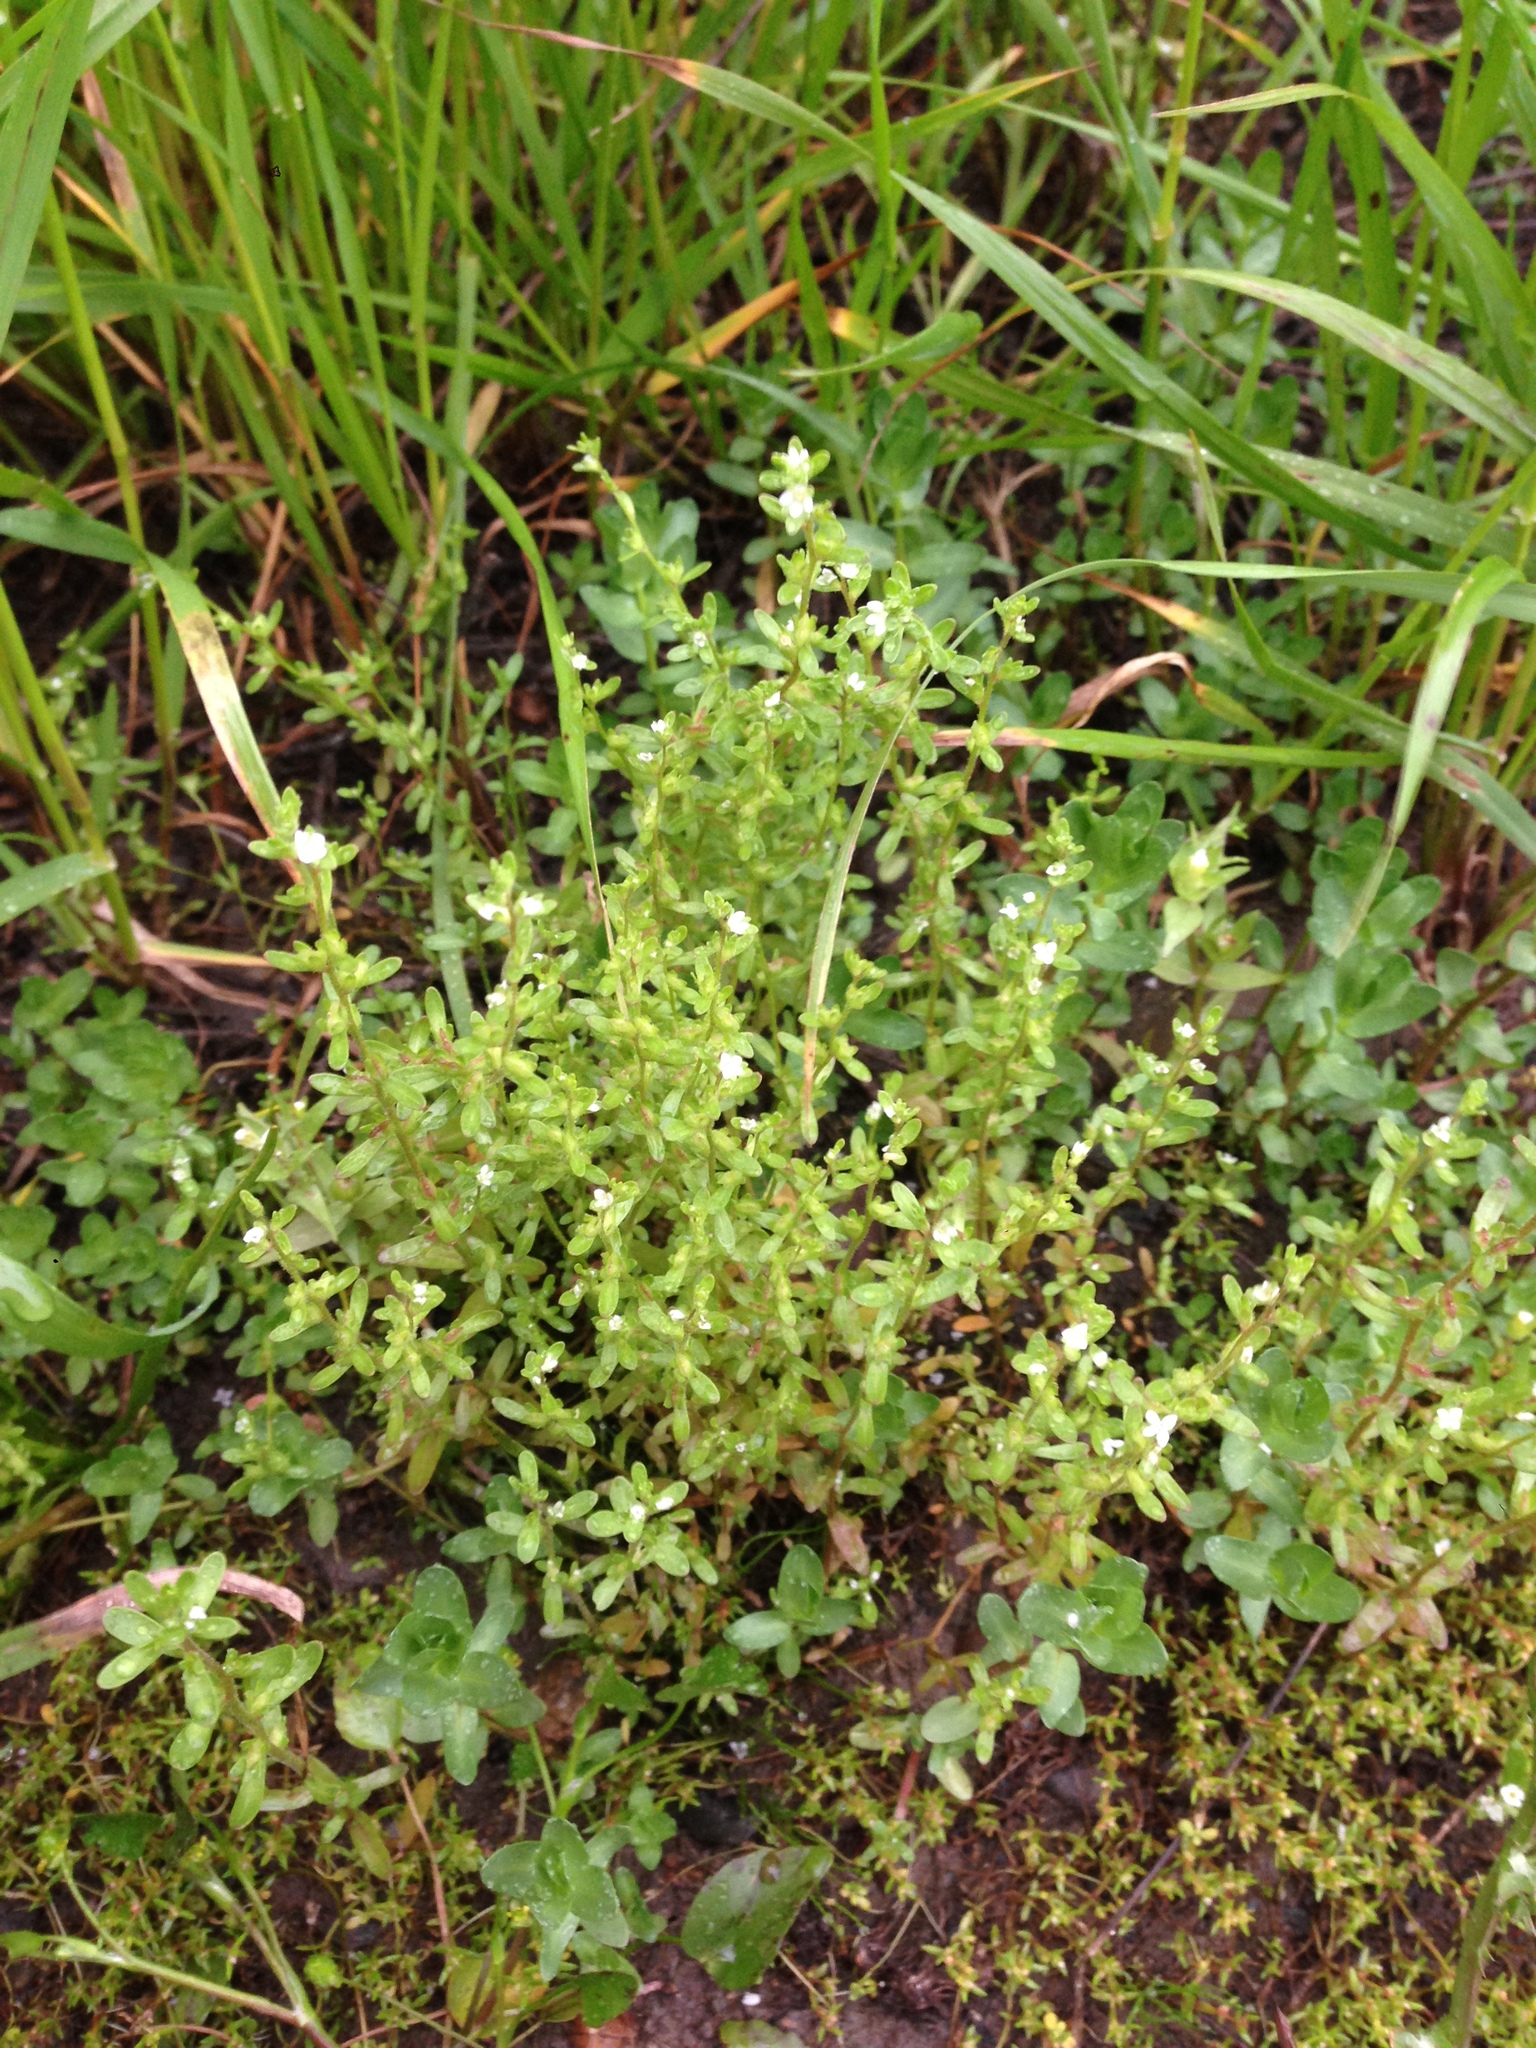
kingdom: Plantae
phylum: Tracheophyta
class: Magnoliopsida
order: Lamiales
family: Plantaginaceae
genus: Veronica
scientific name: Veronica peregrina
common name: Neckweed
